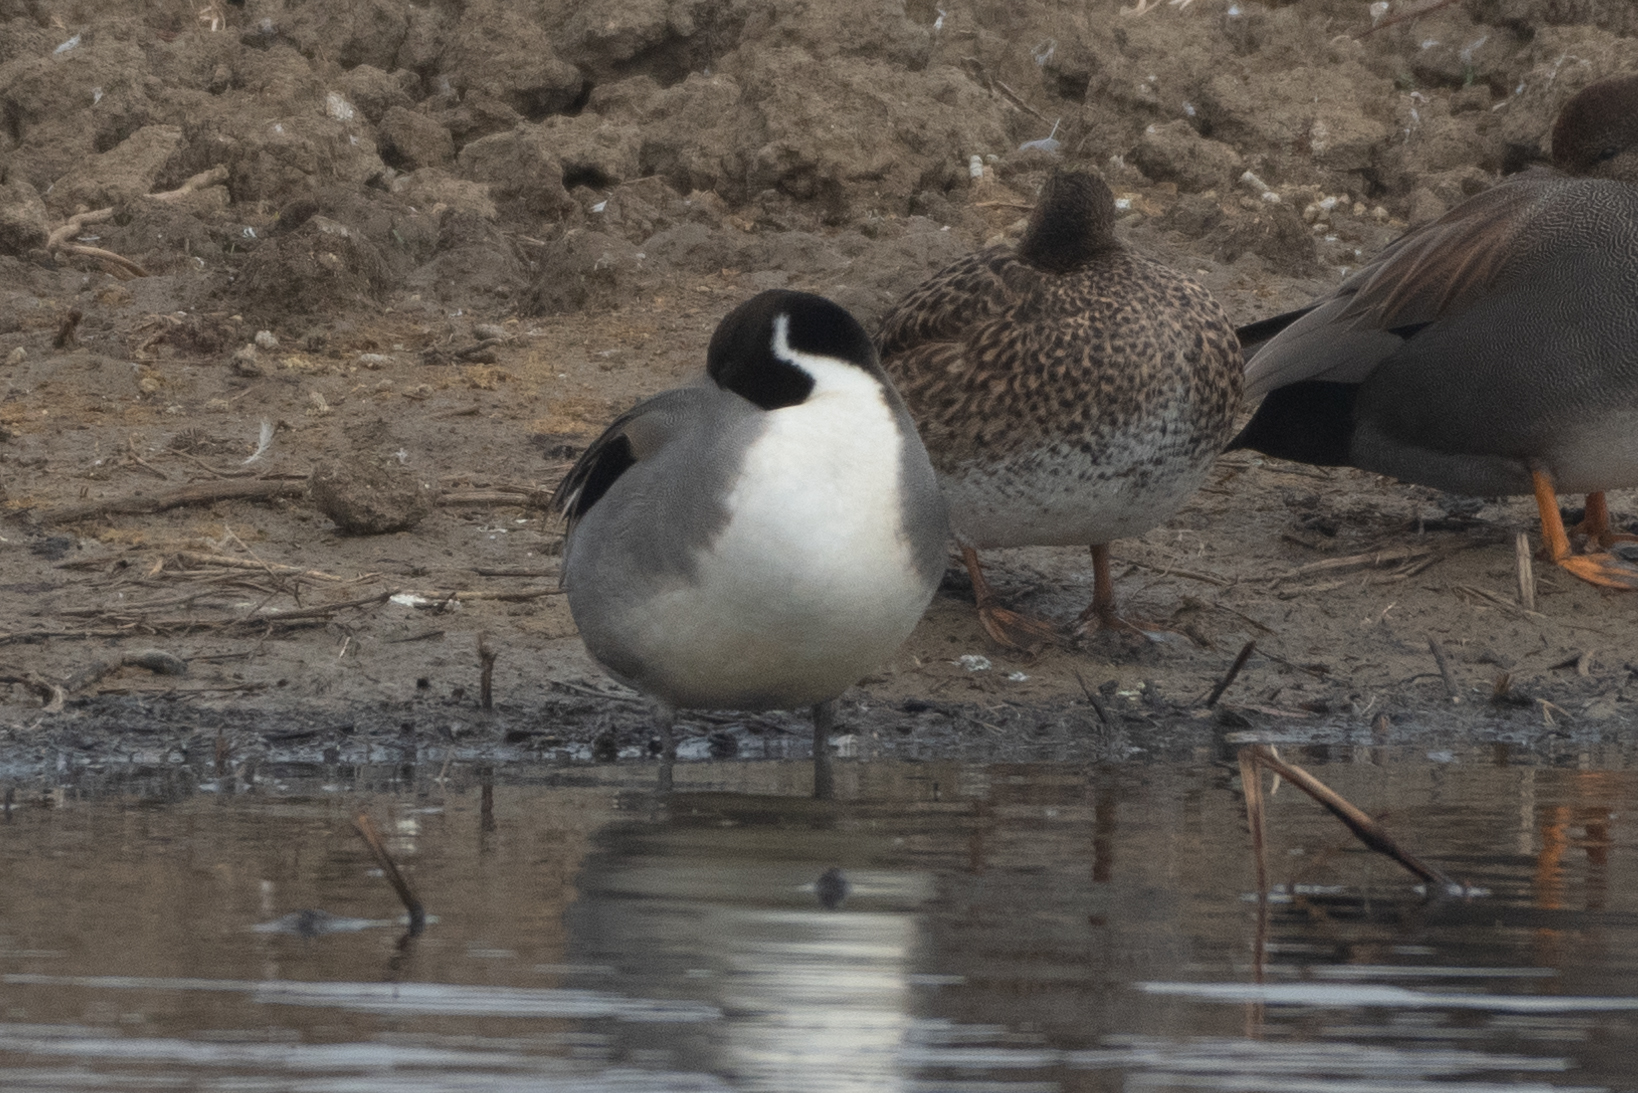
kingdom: Animalia
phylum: Chordata
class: Aves
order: Anseriformes
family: Anatidae
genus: Anas
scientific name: Anas acuta
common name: Northern pintail
